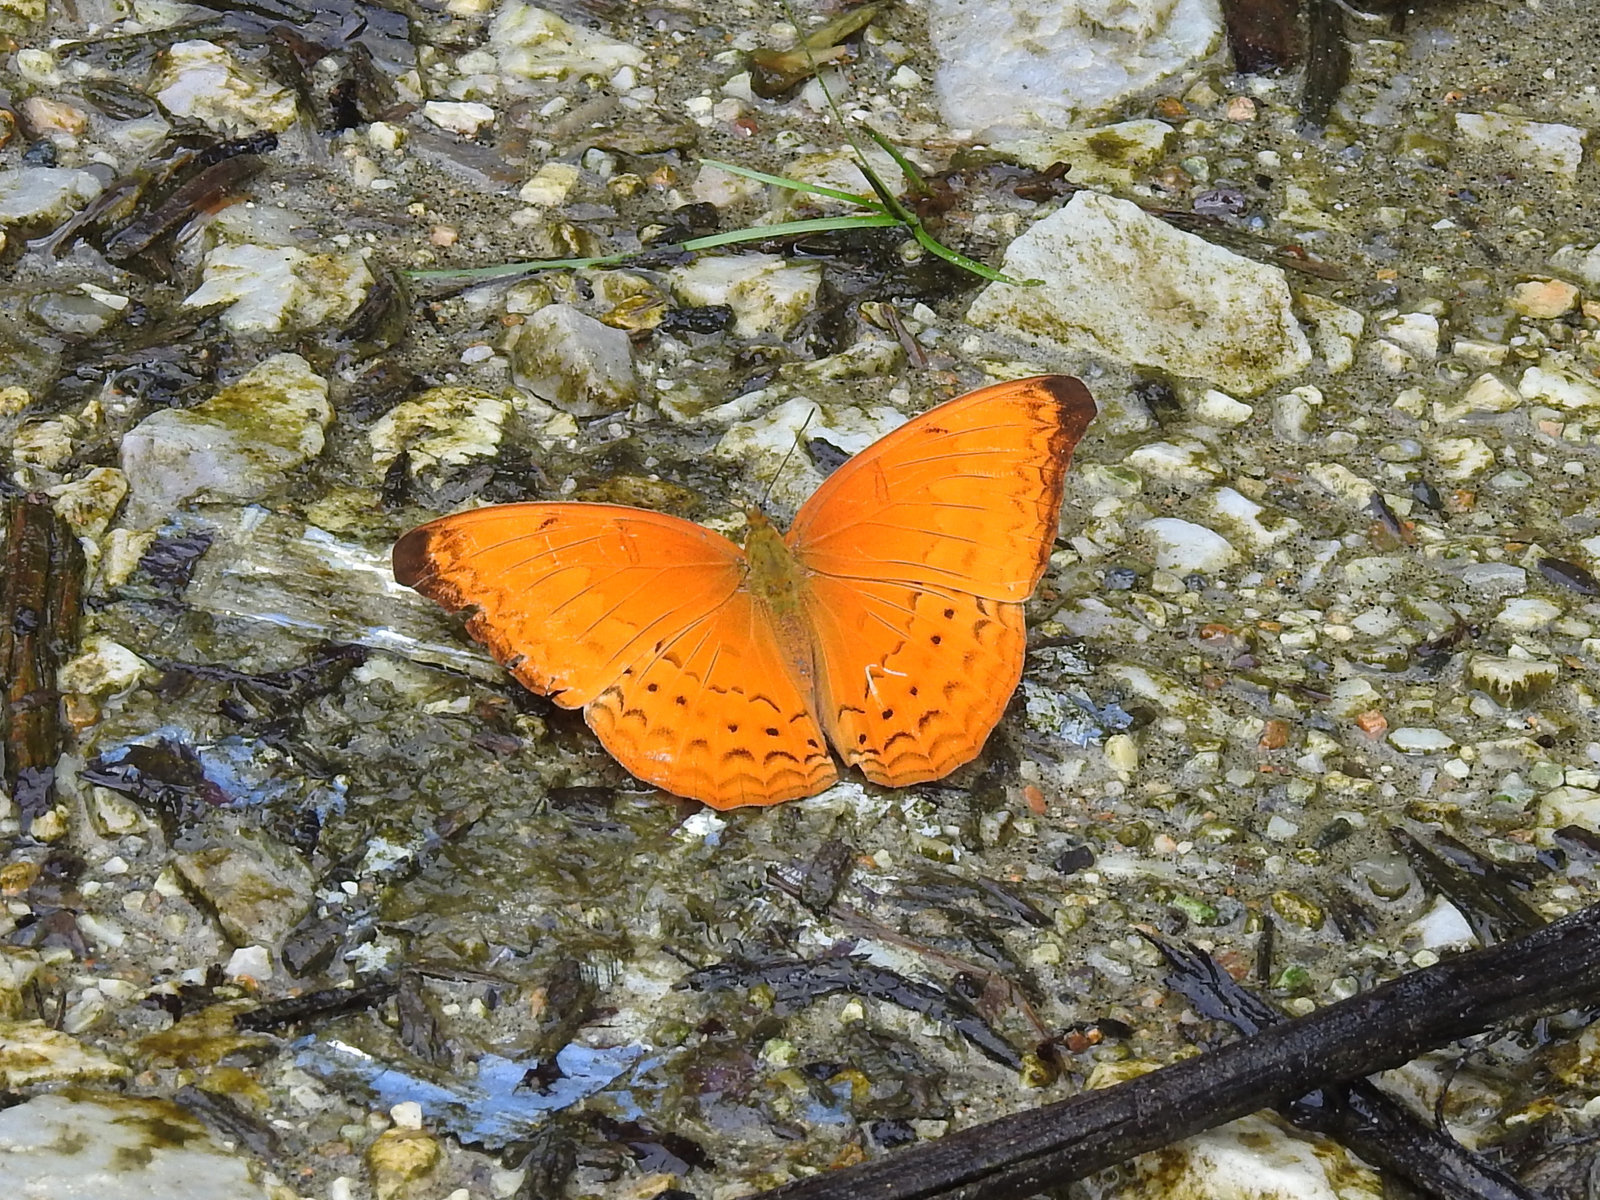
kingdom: Animalia
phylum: Arthropoda
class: Insecta
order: Lepidoptera
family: Nymphalidae
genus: Cirrochroa
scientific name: Cirrochroa aoris
